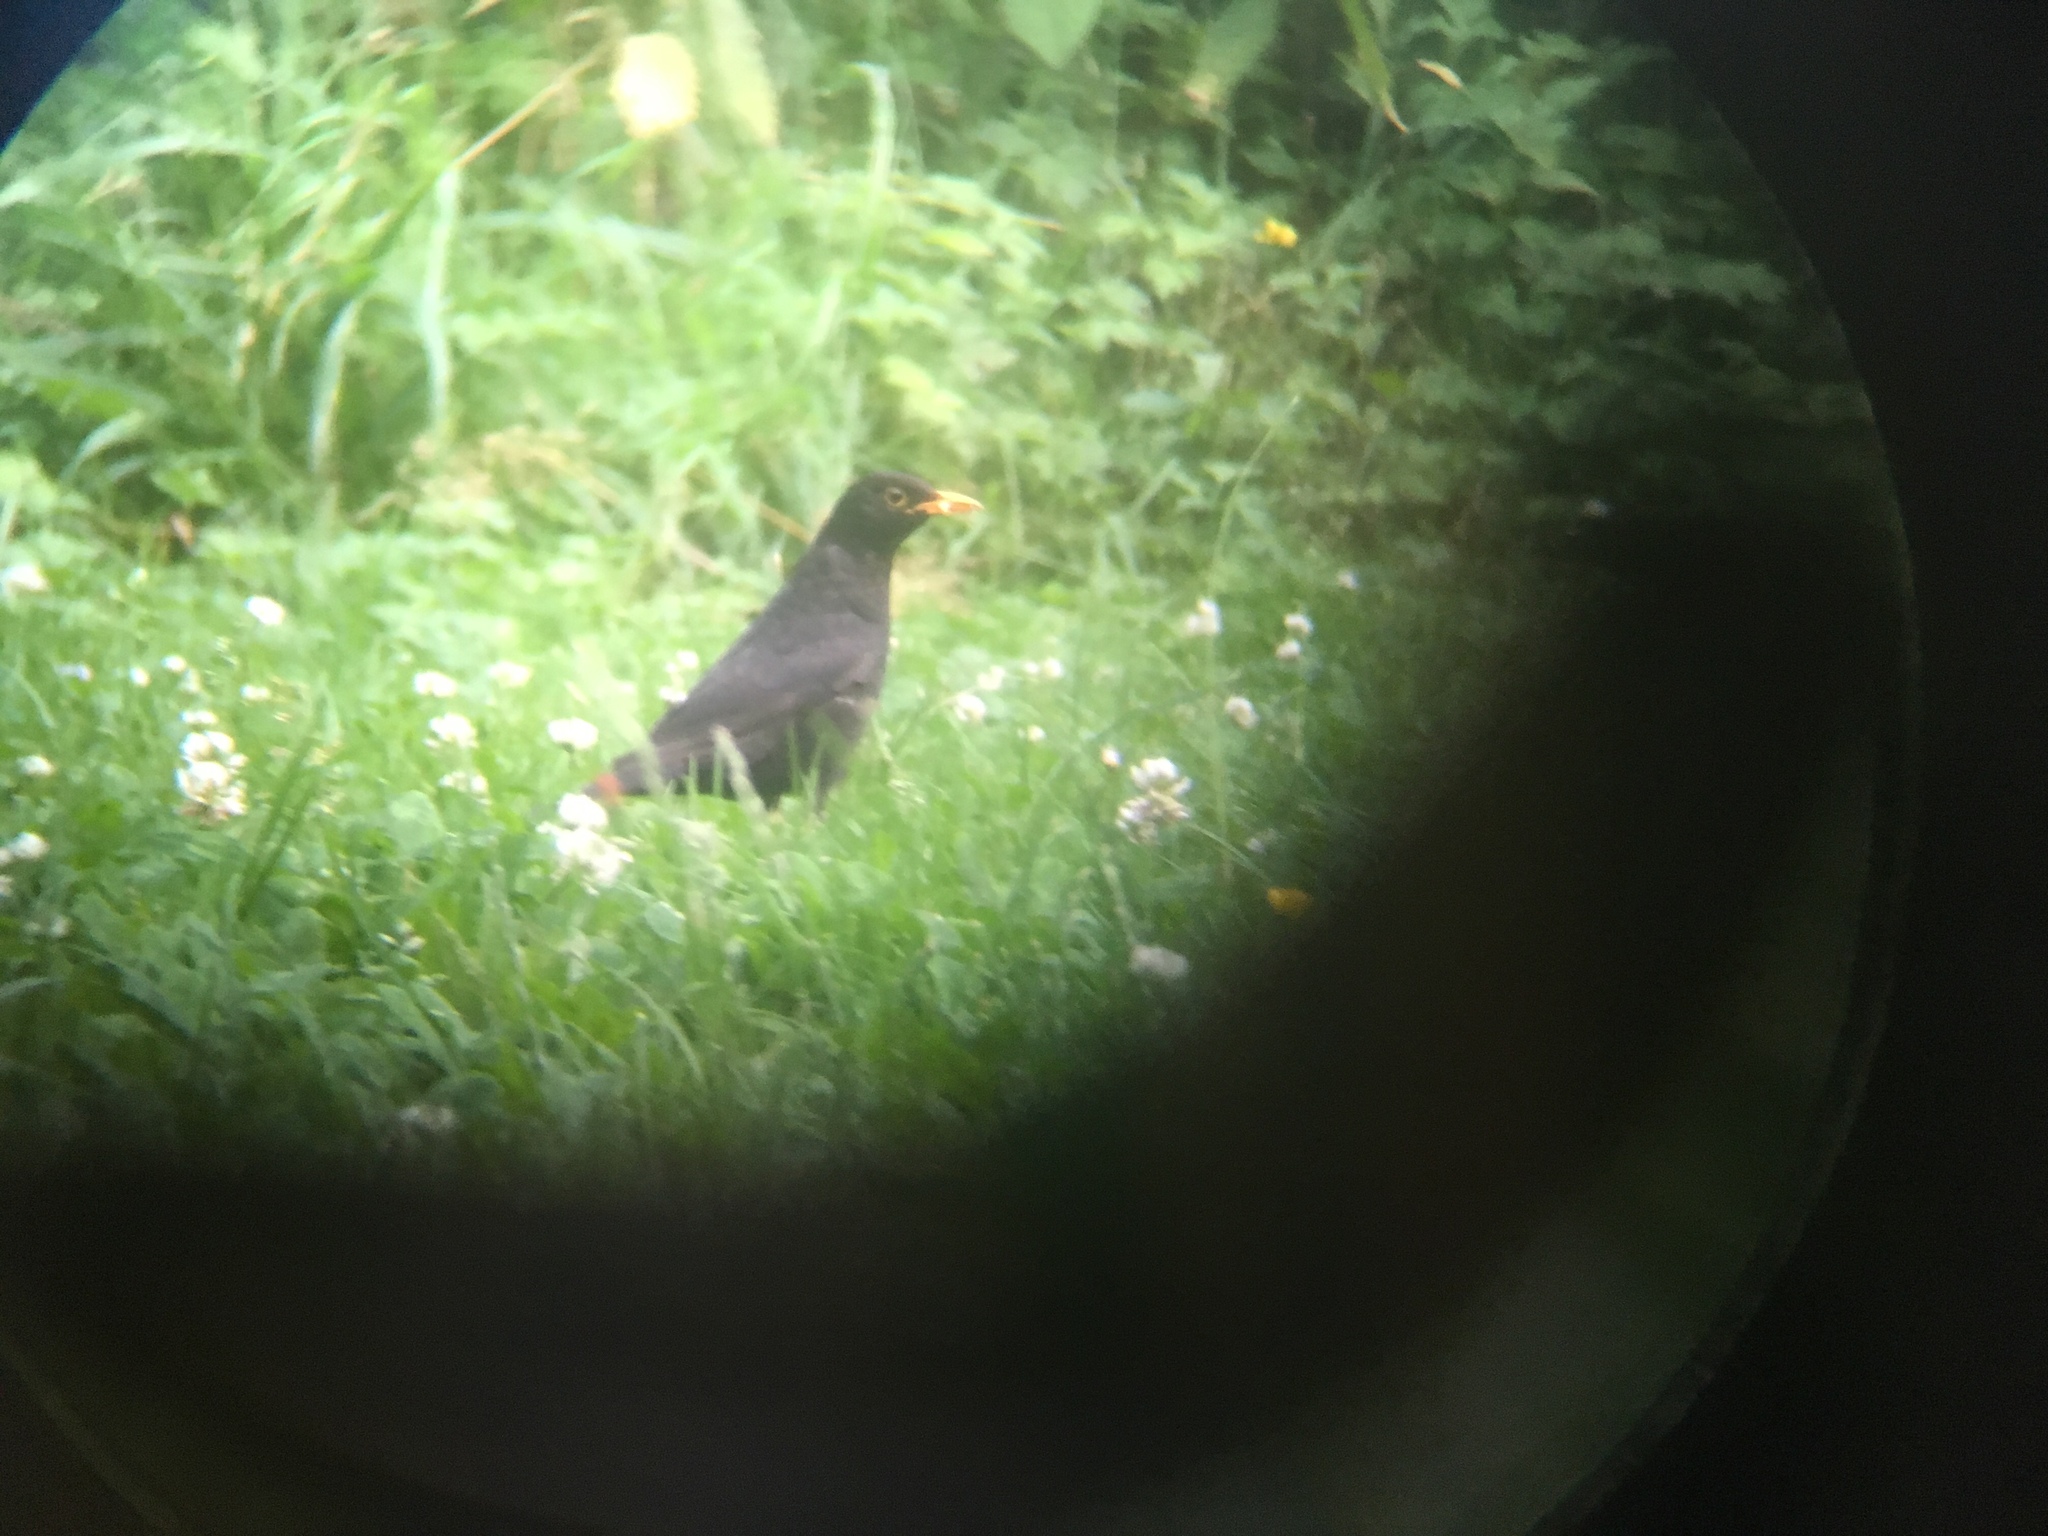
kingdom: Animalia
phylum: Chordata
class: Aves
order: Passeriformes
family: Turdidae
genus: Turdus
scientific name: Turdus merula
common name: Common blackbird
